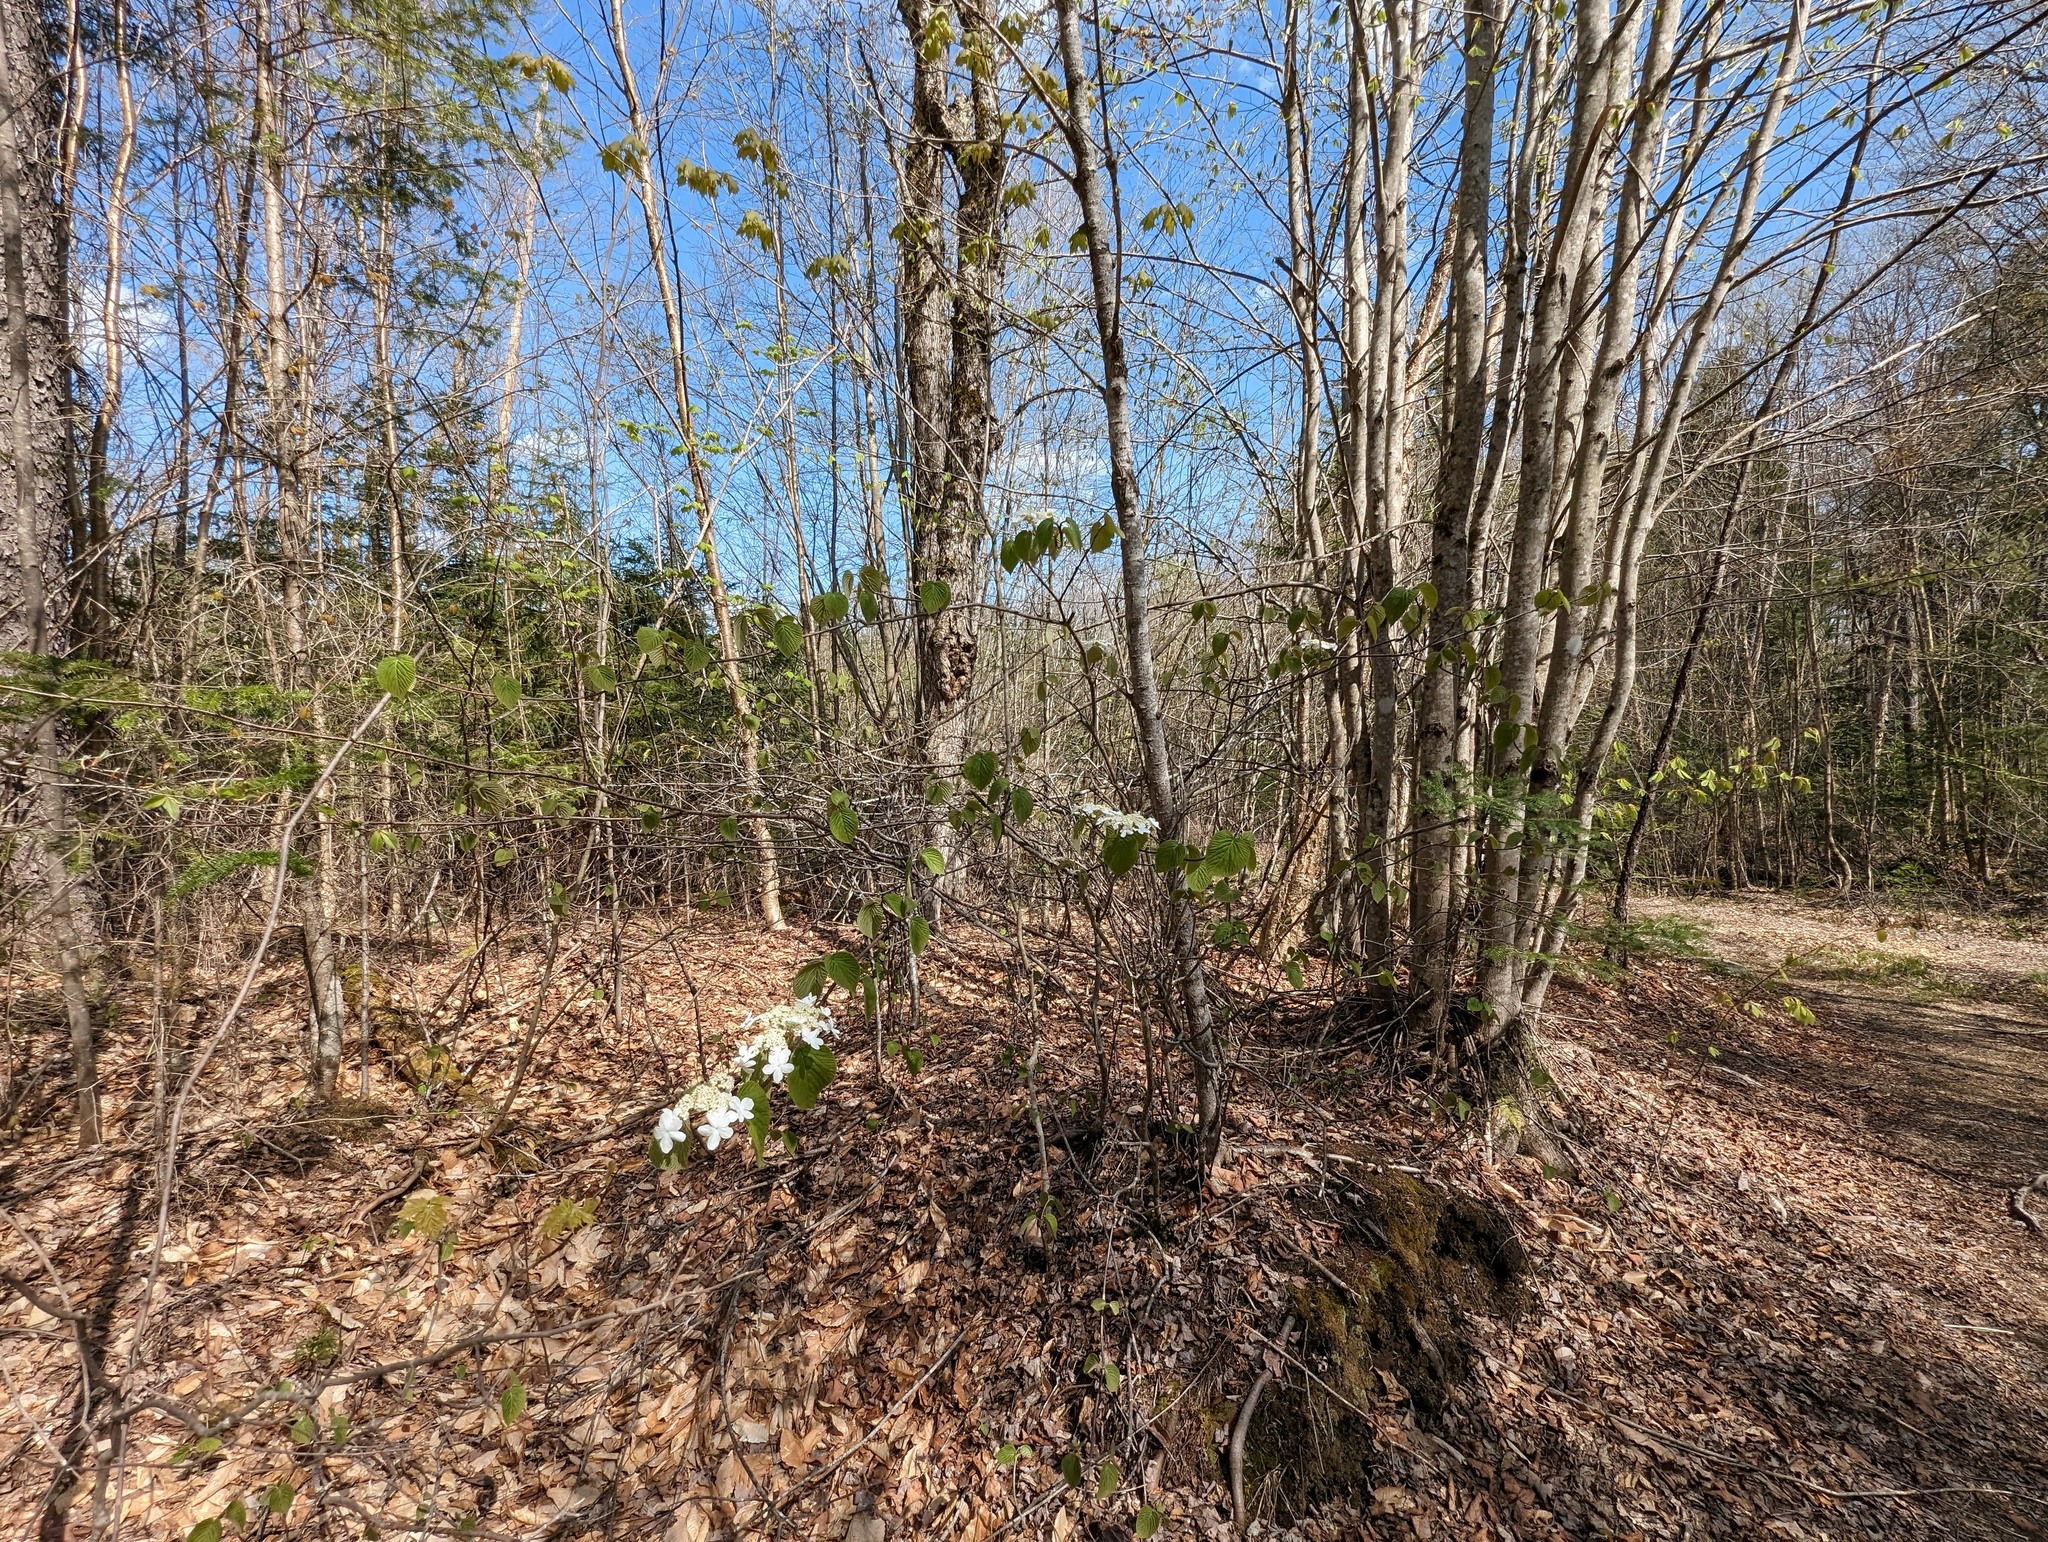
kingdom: Plantae
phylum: Tracheophyta
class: Magnoliopsida
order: Dipsacales
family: Viburnaceae
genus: Viburnum
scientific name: Viburnum lantanoides
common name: Hobblebush
